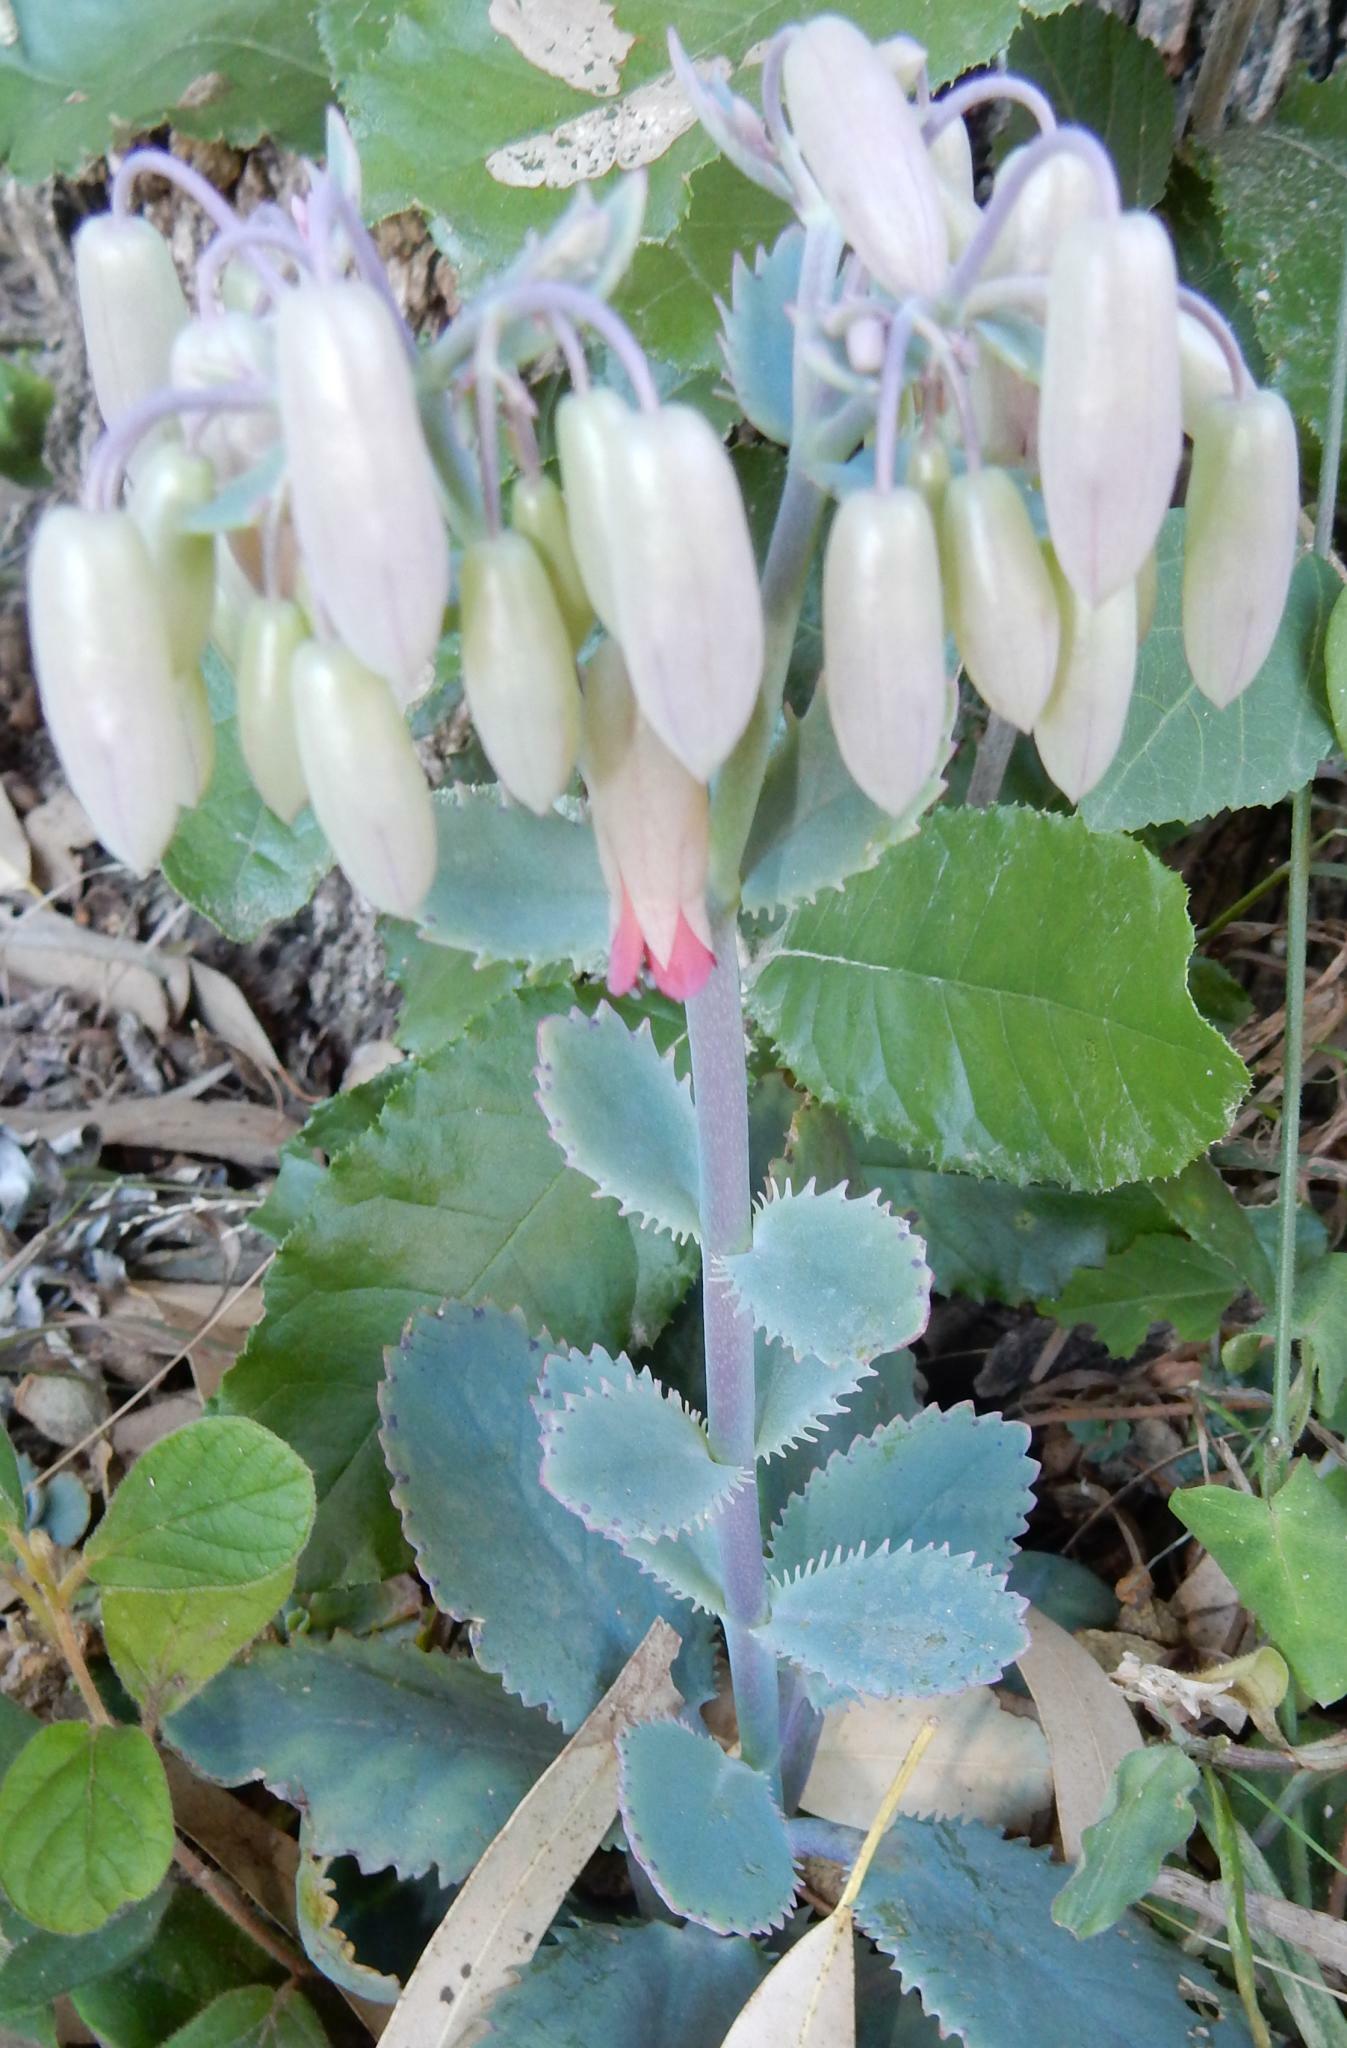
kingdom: Plantae
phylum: Tracheophyta
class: Magnoliopsida
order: Saxifragales
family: Crassulaceae
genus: Kalanchoe
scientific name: Kalanchoe serrata
